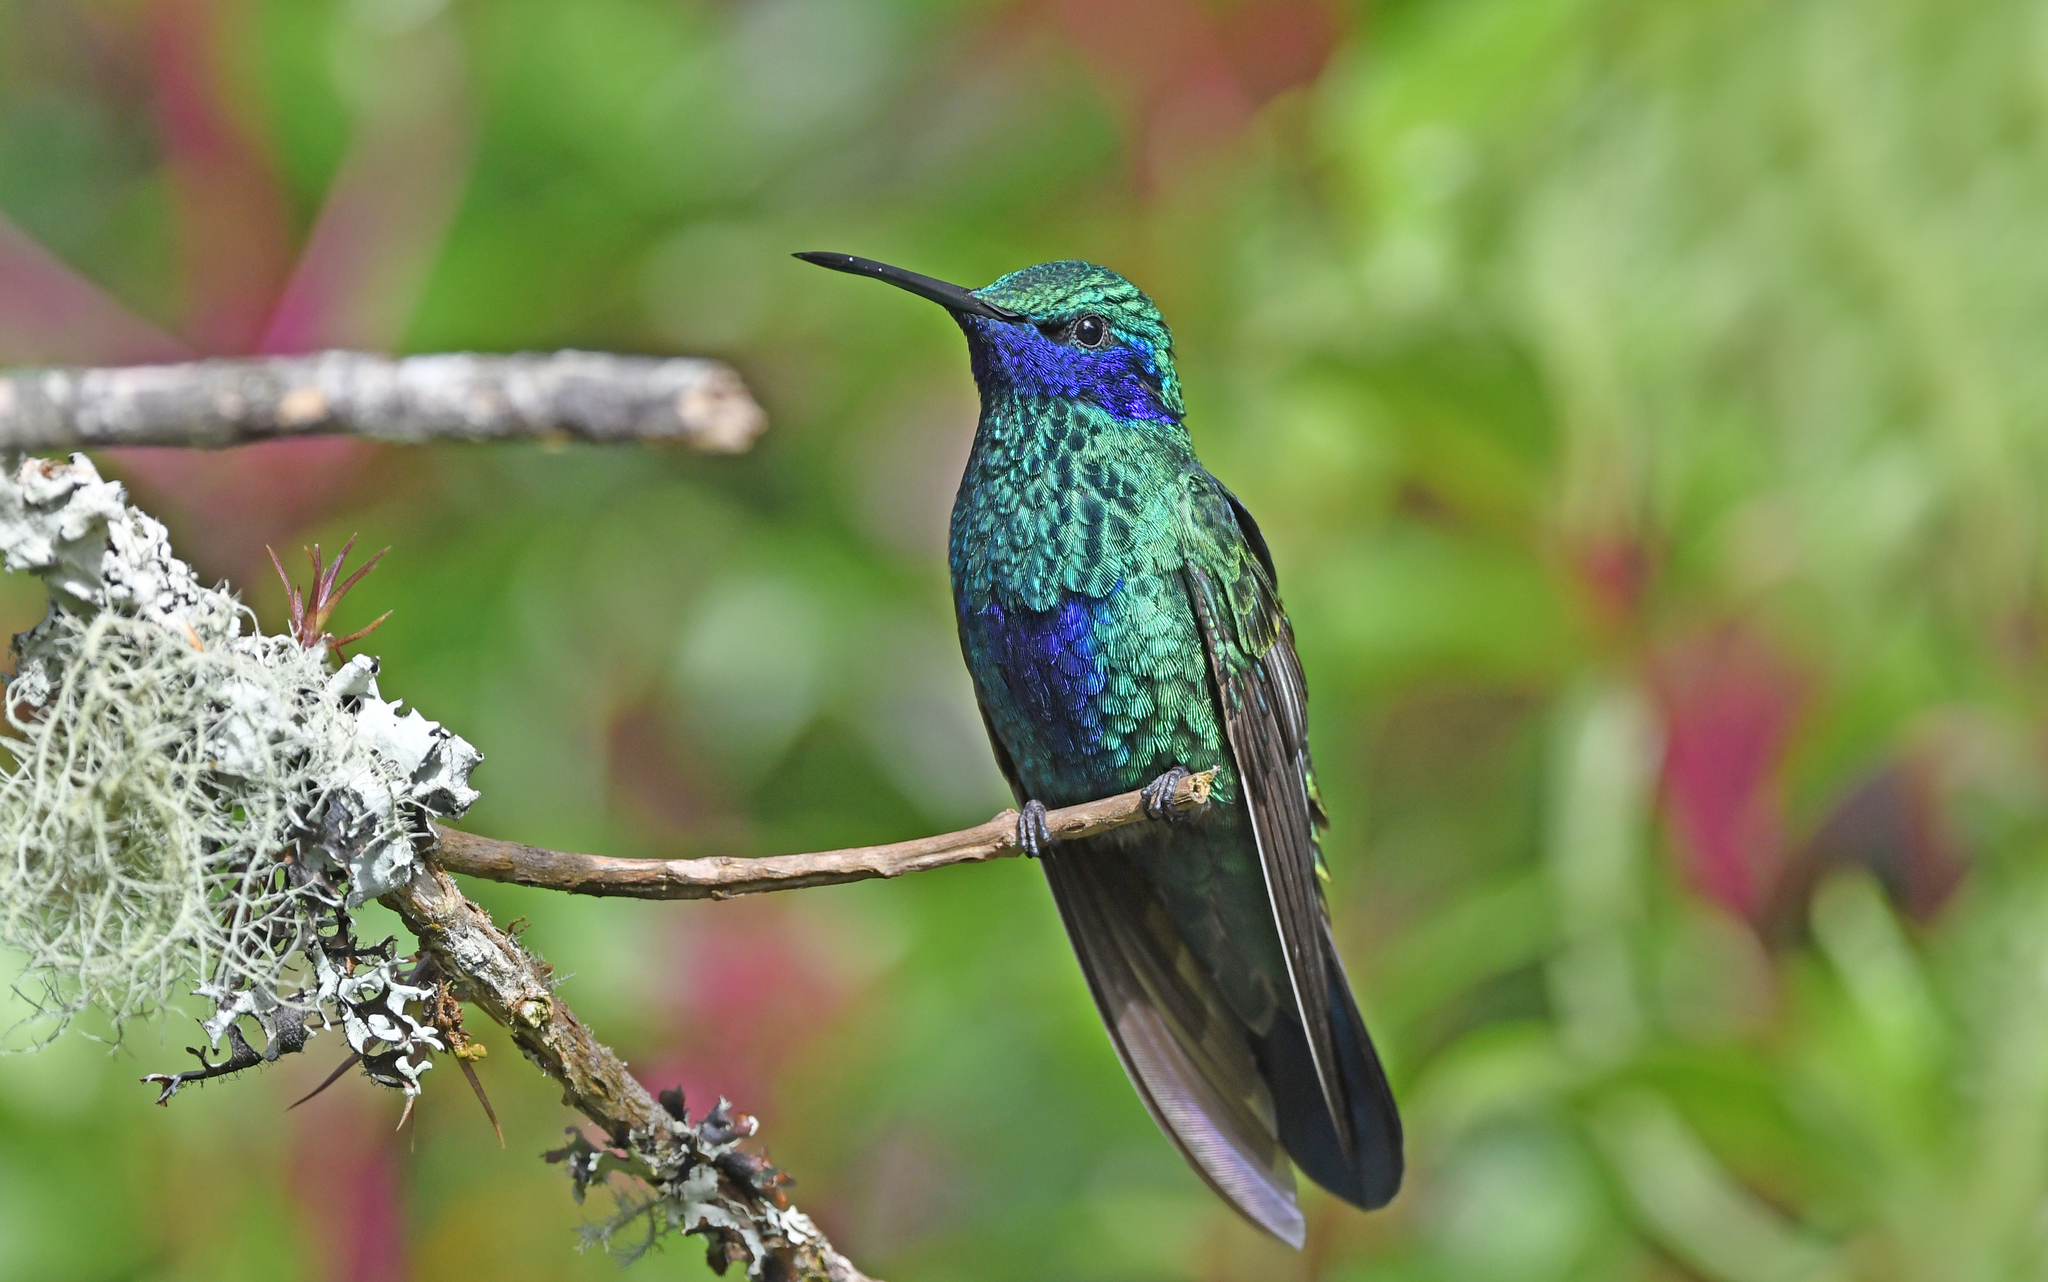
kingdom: Animalia
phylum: Chordata
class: Aves
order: Apodiformes
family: Trochilidae
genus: Colibri
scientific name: Colibri coruscans
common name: Sparkling violetear
